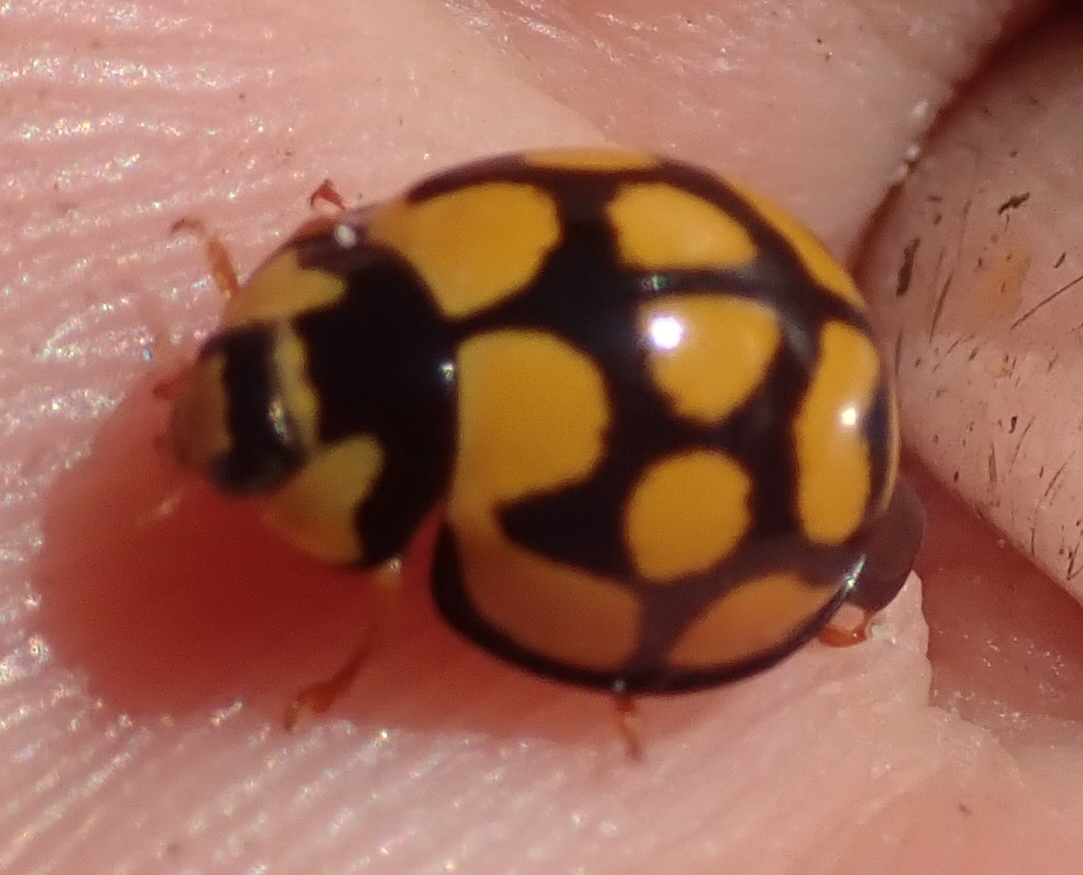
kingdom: Animalia
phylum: Arthropoda
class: Insecta
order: Coleoptera
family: Coccinellidae
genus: Cheilomenes
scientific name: Cheilomenes lunata
